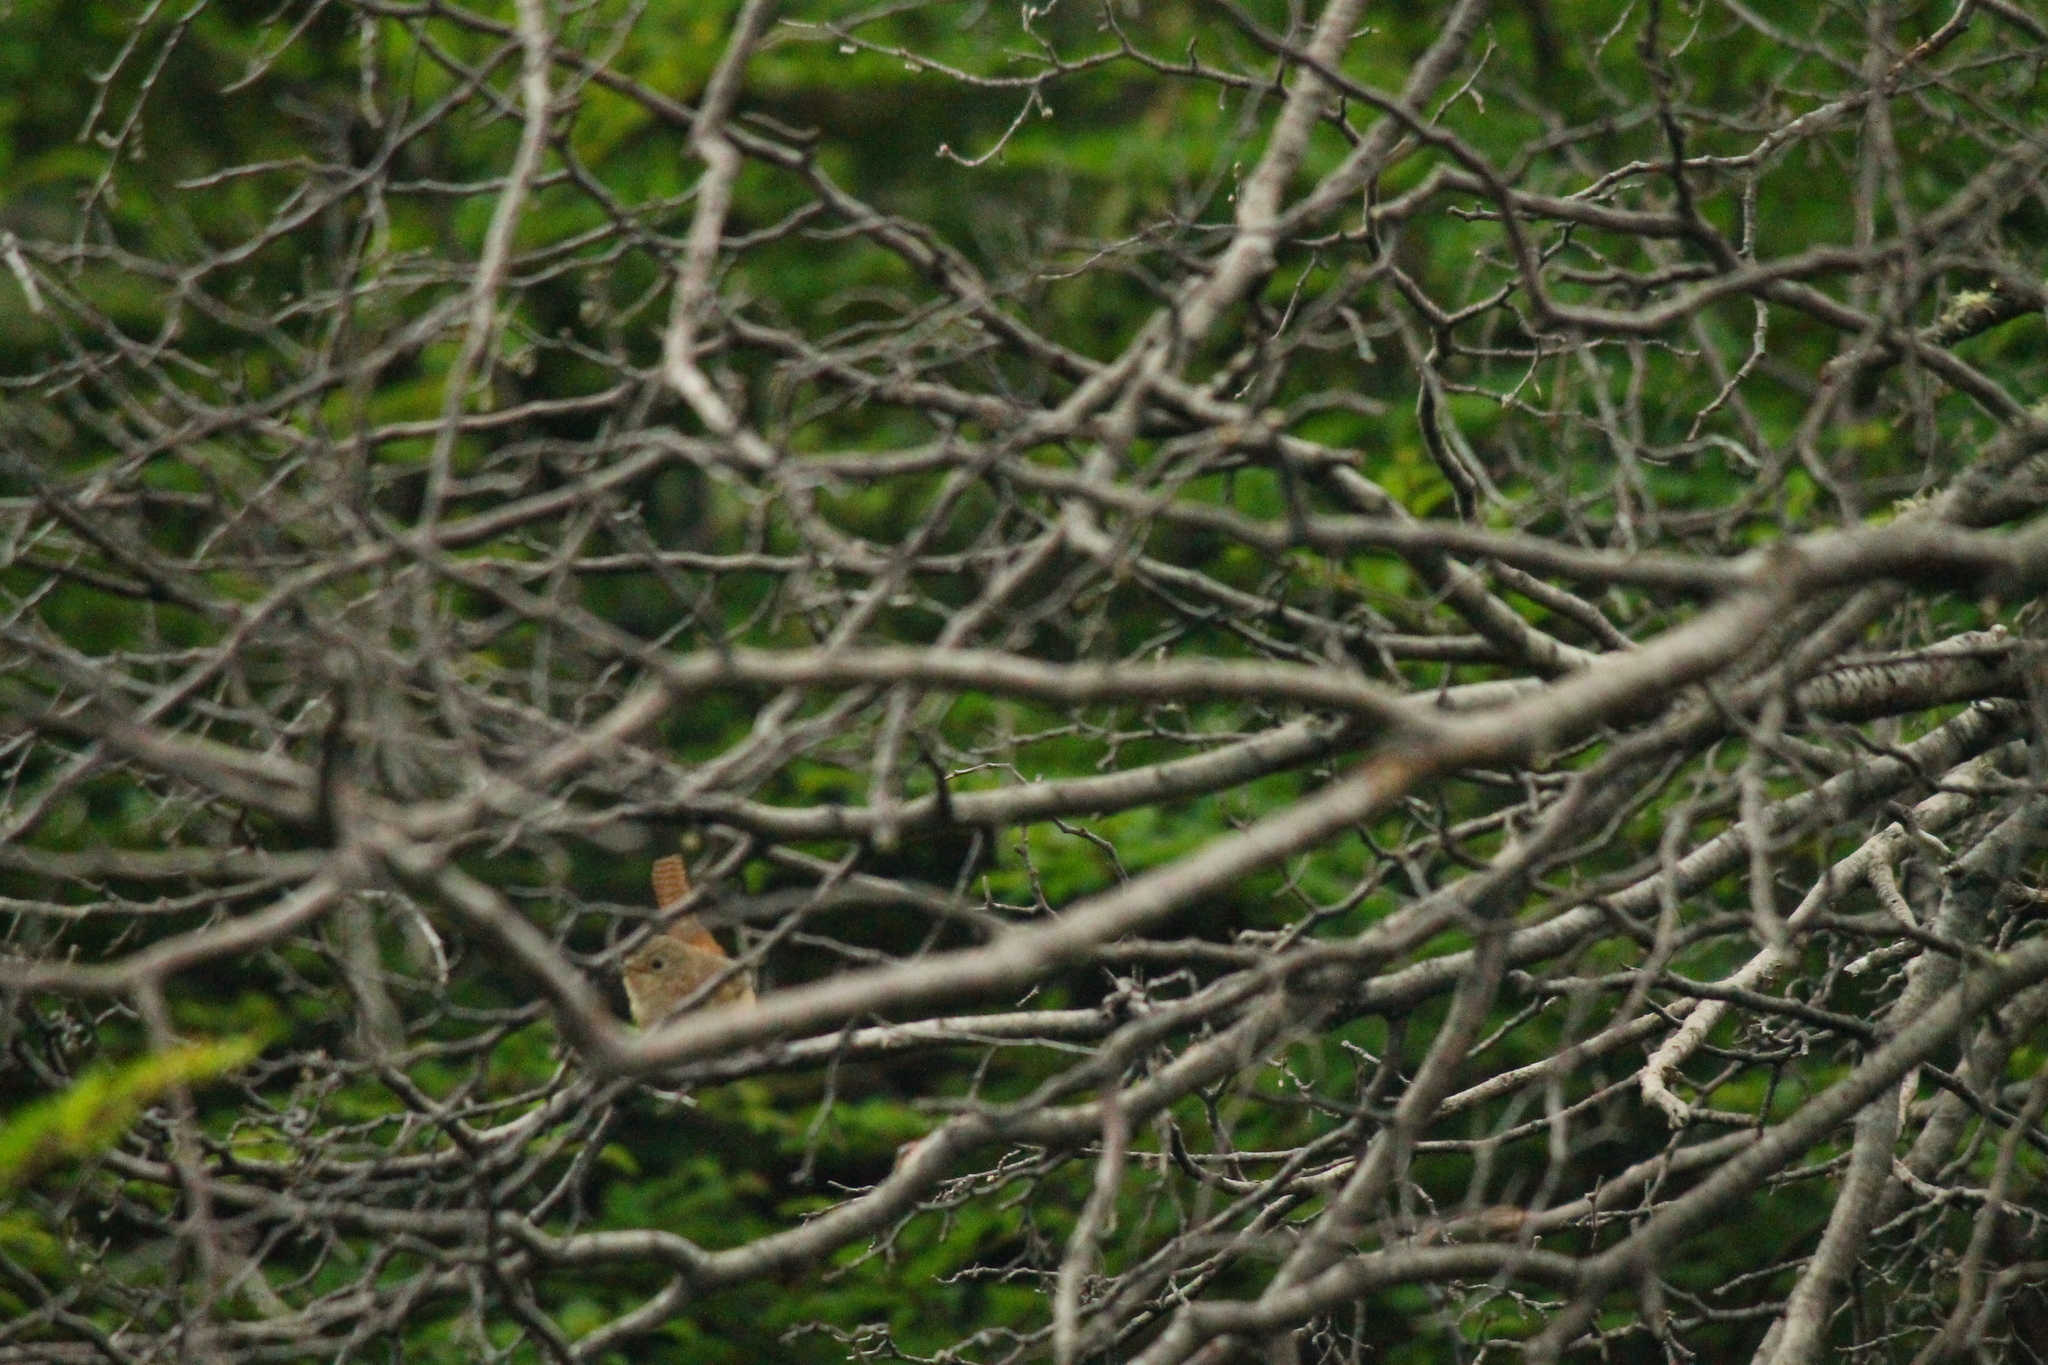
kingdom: Animalia
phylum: Chordata
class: Aves
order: Passeriformes
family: Troglodytidae
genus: Troglodytes
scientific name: Troglodytes aedon
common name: House wren
